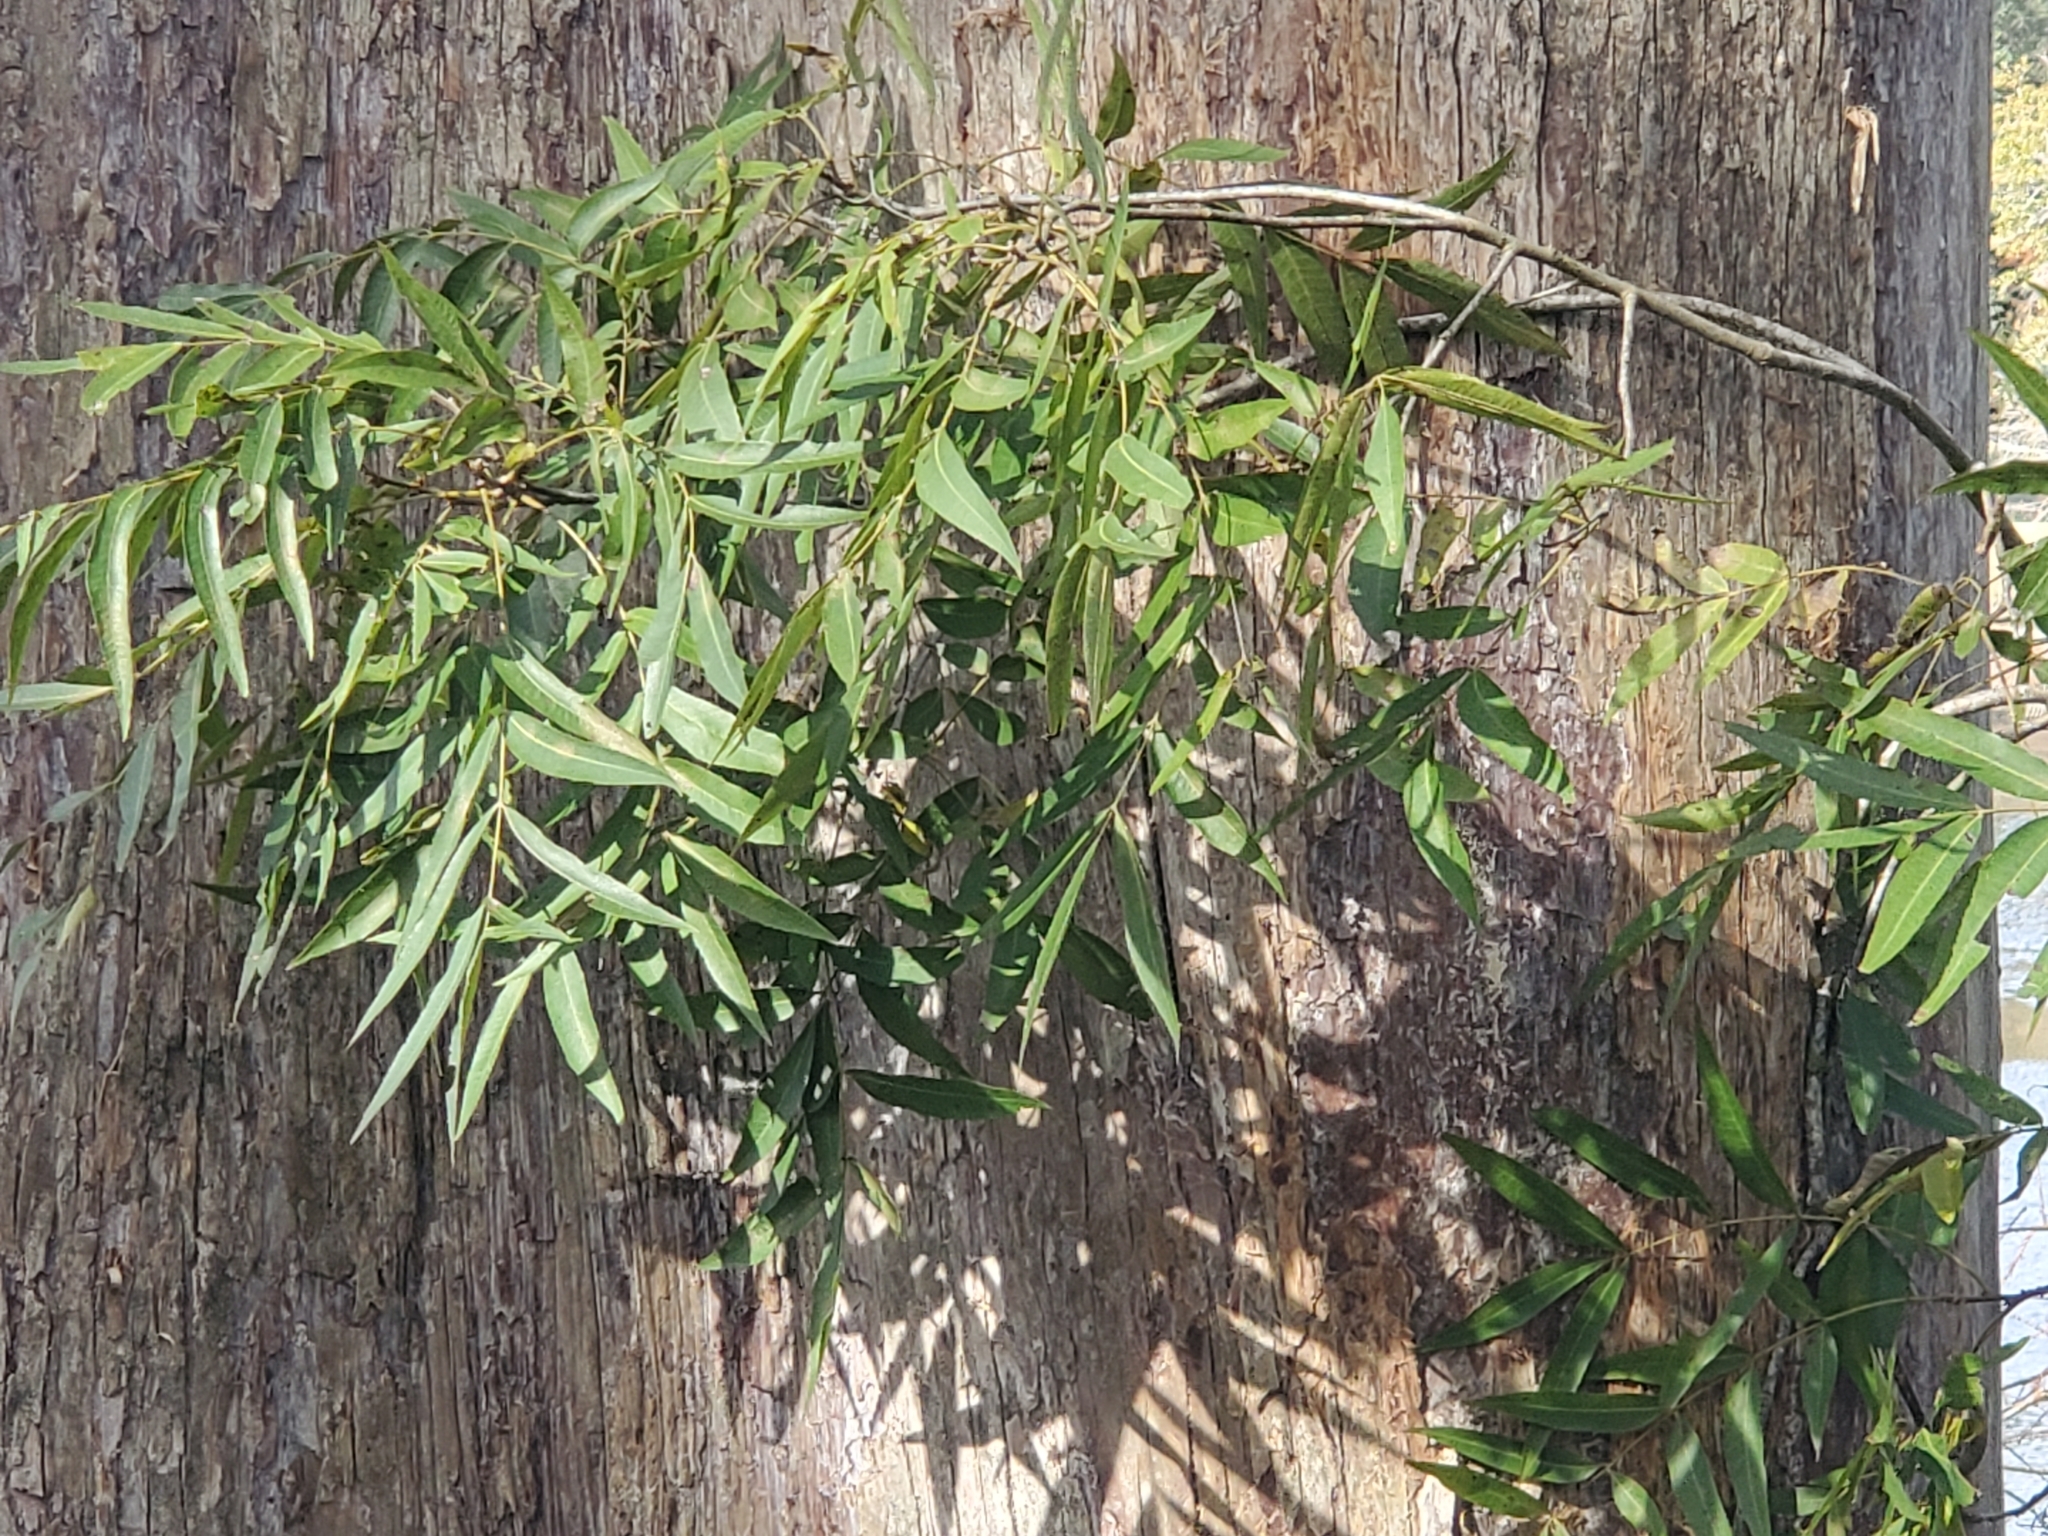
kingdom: Plantae
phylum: Tracheophyta
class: Magnoliopsida
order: Fagales
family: Juglandaceae
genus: Carya
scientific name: Carya aquatica
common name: Water hickory
